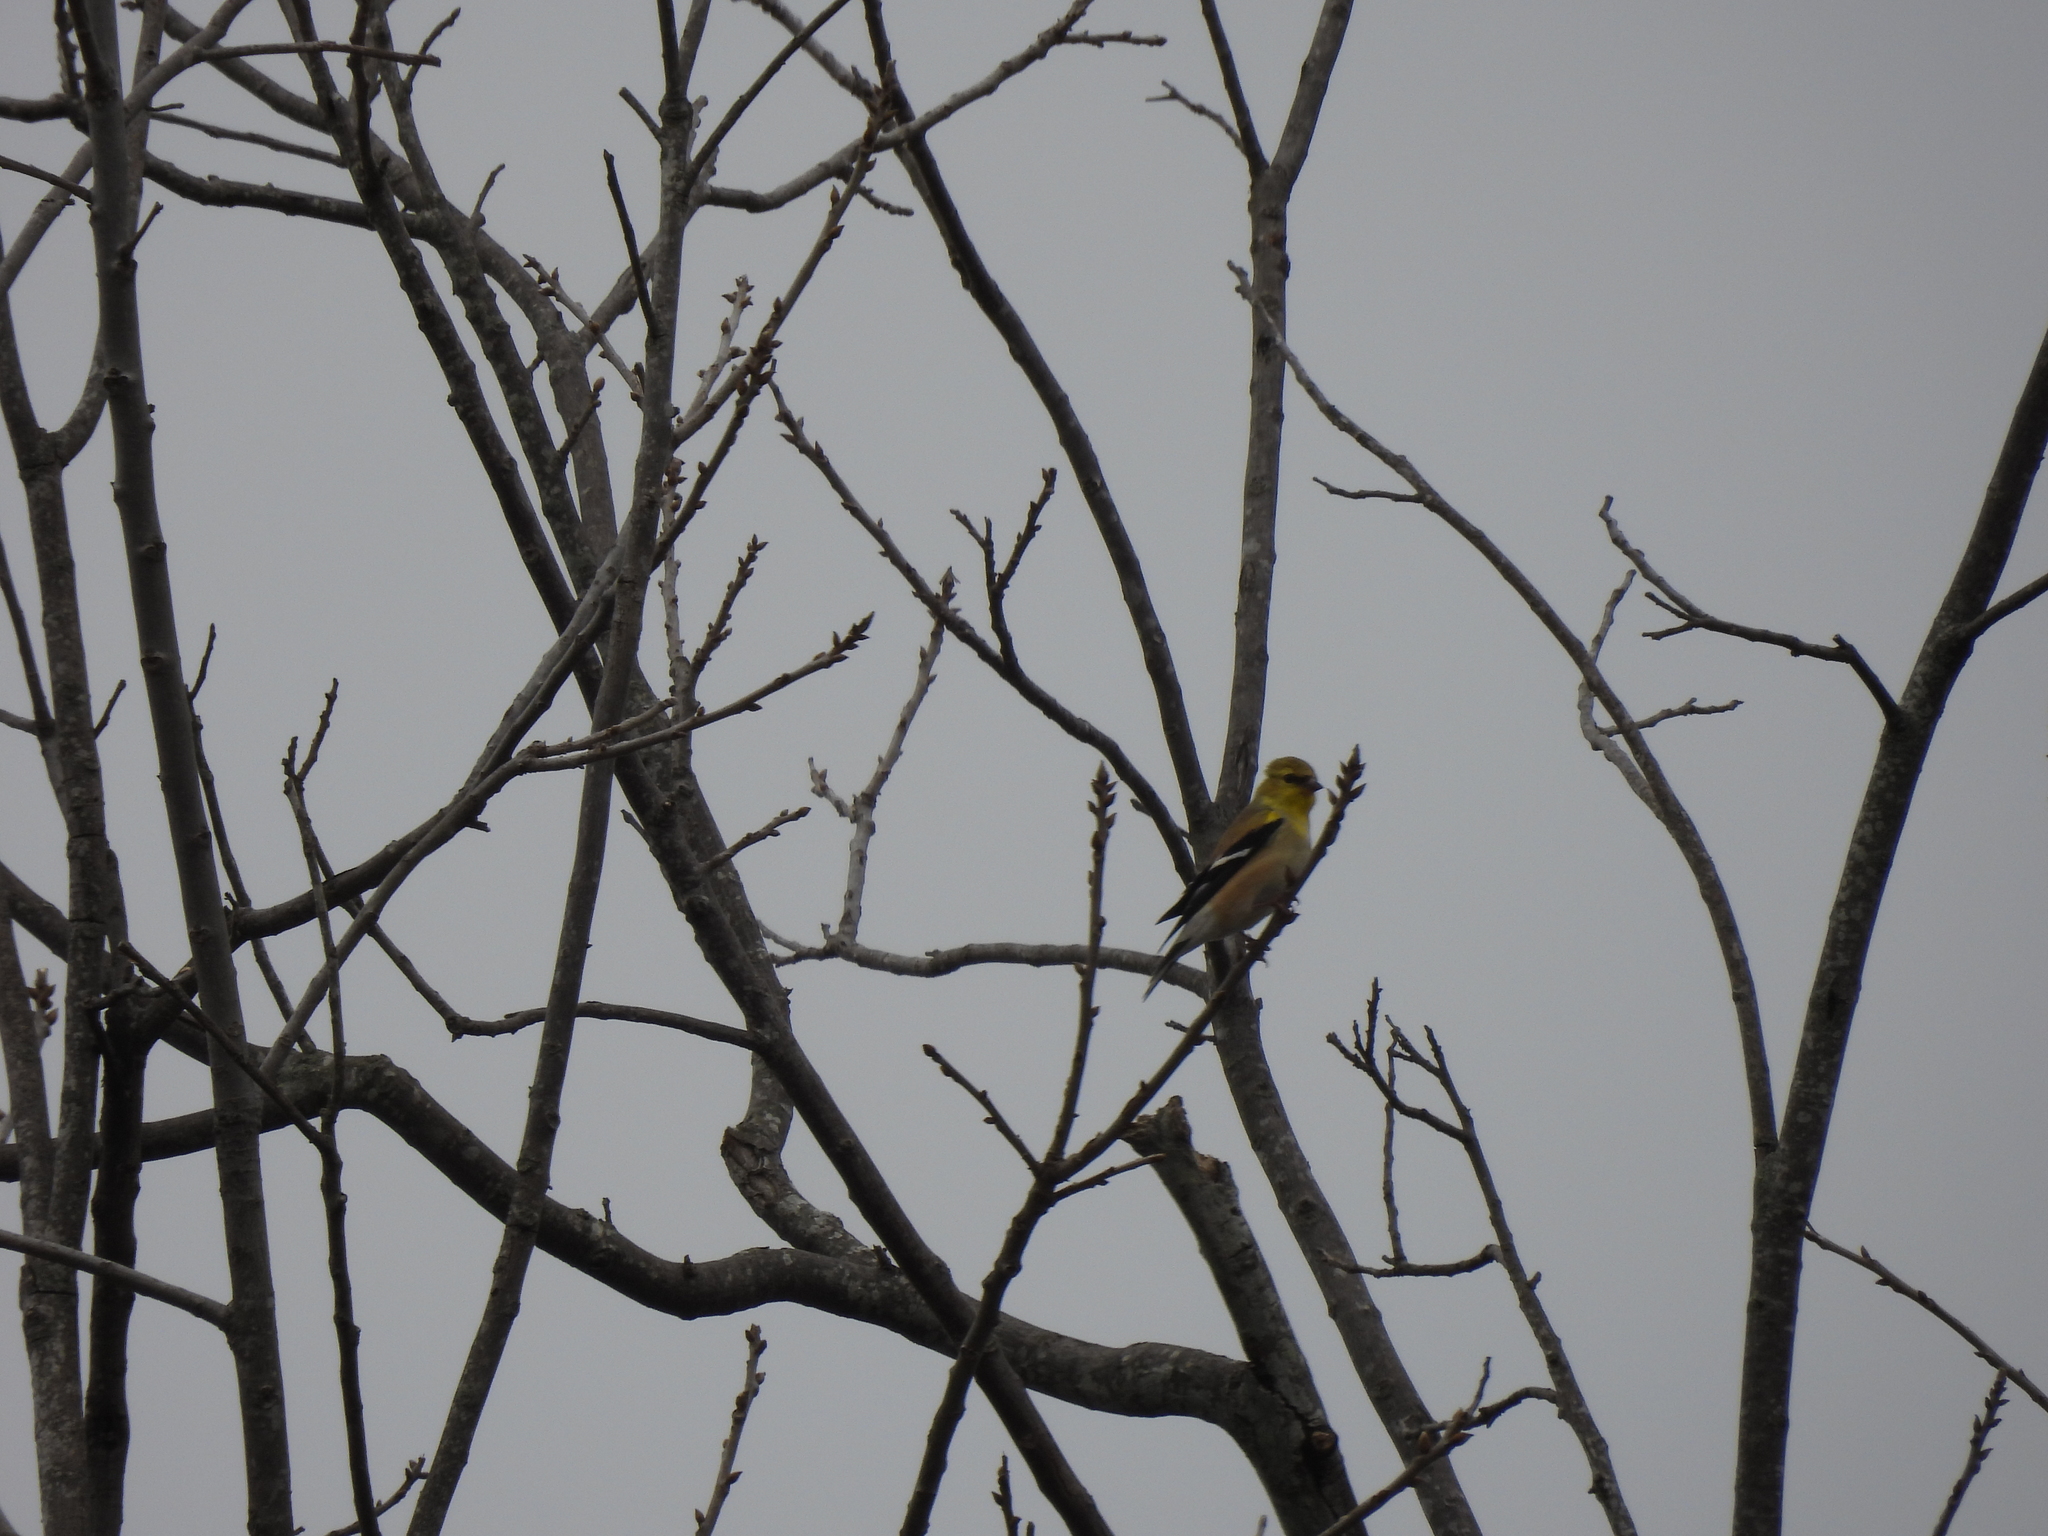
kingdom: Animalia
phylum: Chordata
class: Aves
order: Passeriformes
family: Fringillidae
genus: Spinus
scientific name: Spinus tristis
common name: American goldfinch
